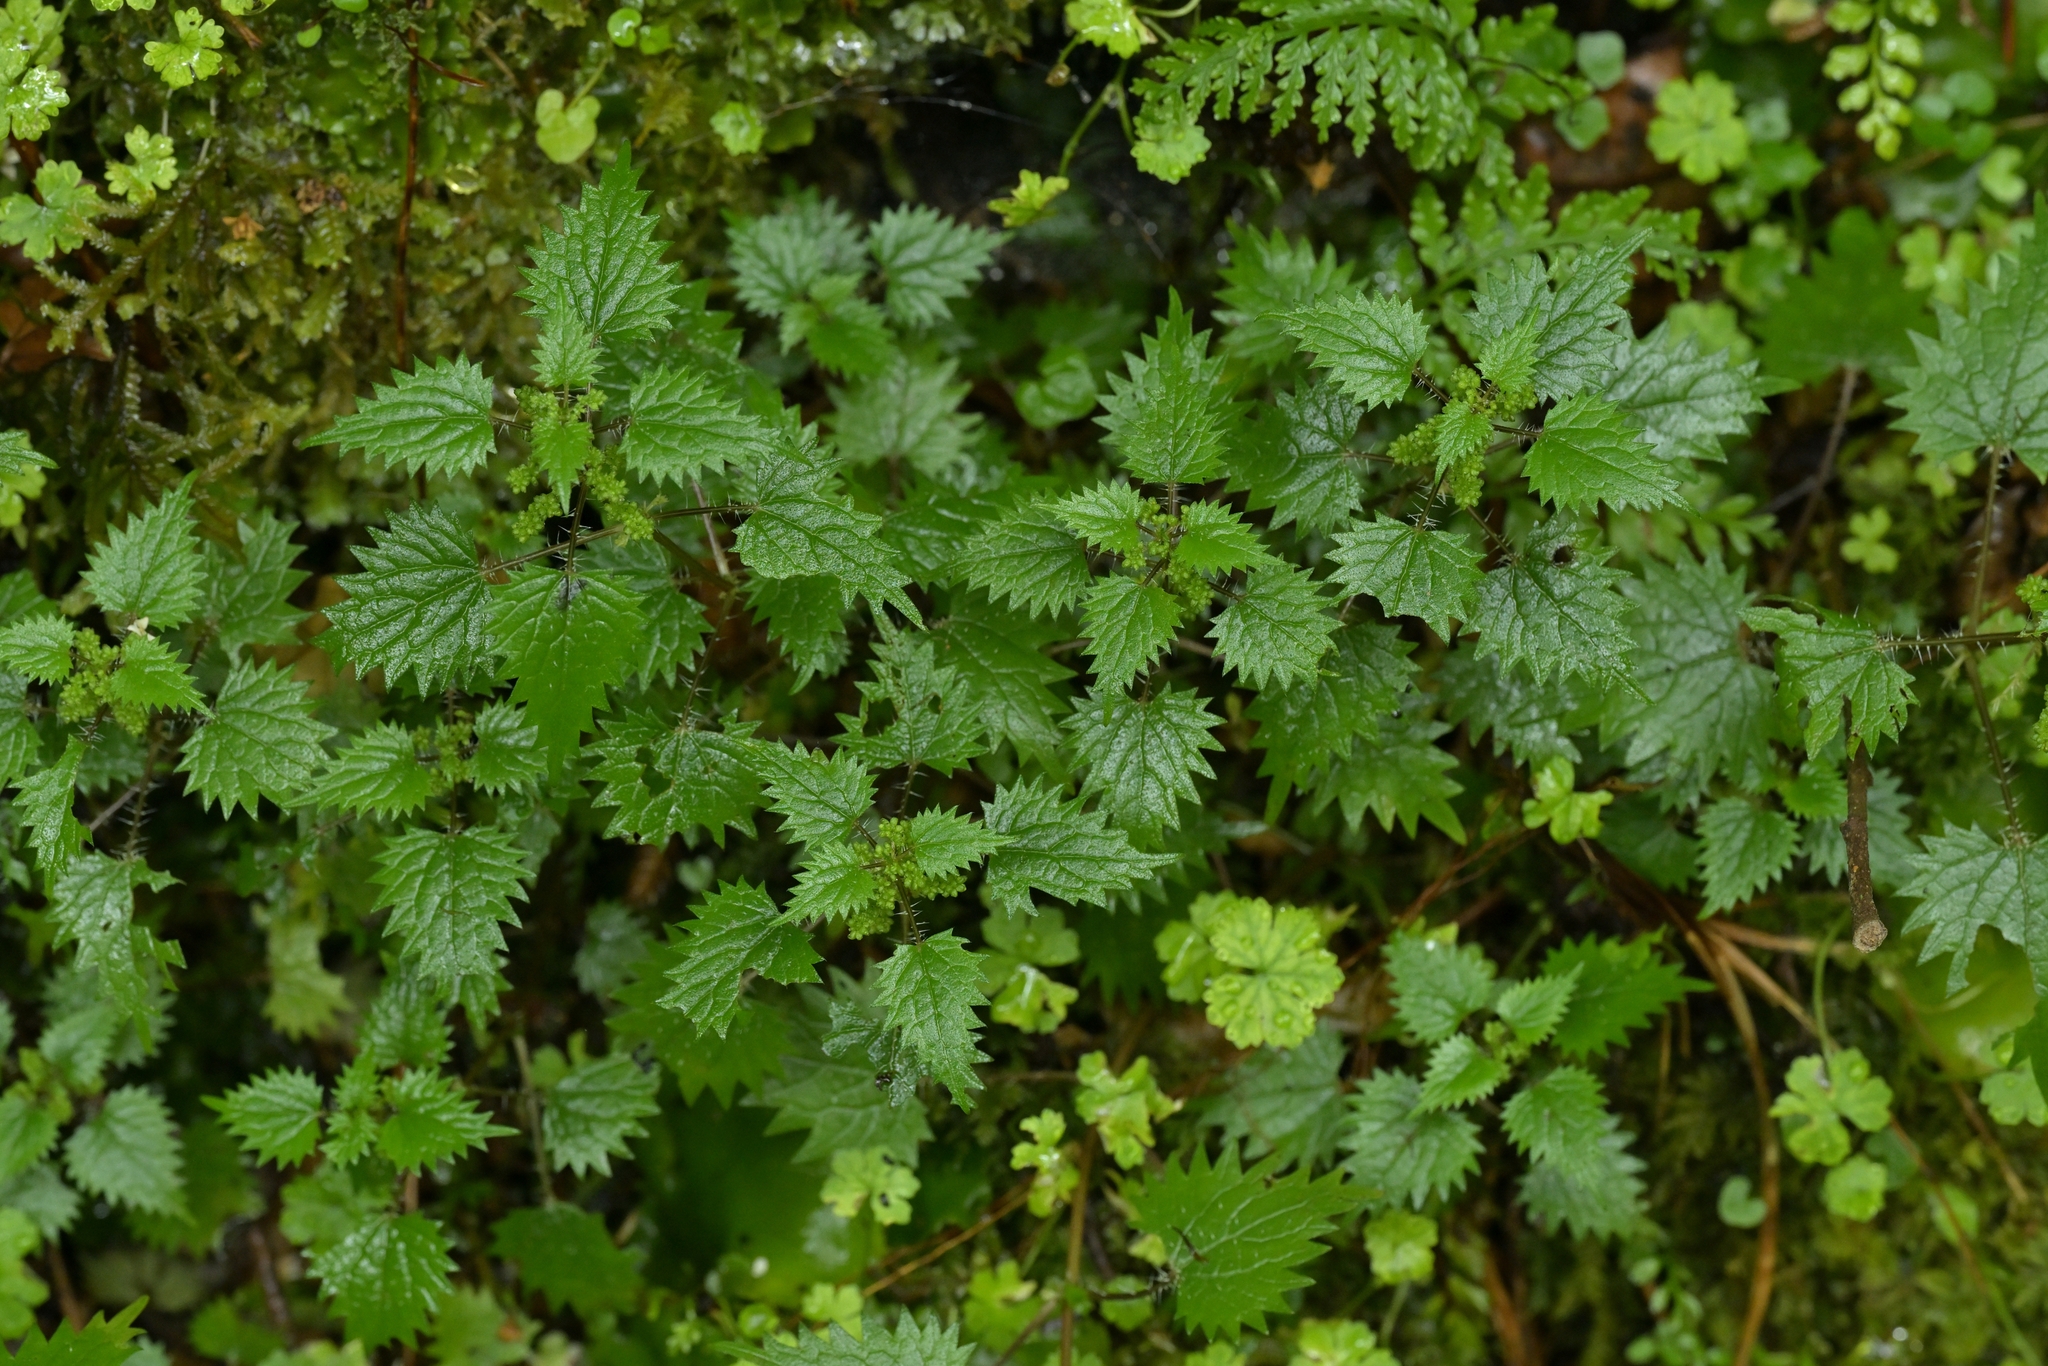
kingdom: Plantae
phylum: Tracheophyta
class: Magnoliopsida
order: Rosales
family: Urticaceae
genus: Urtica
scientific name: Urtica sykesii
